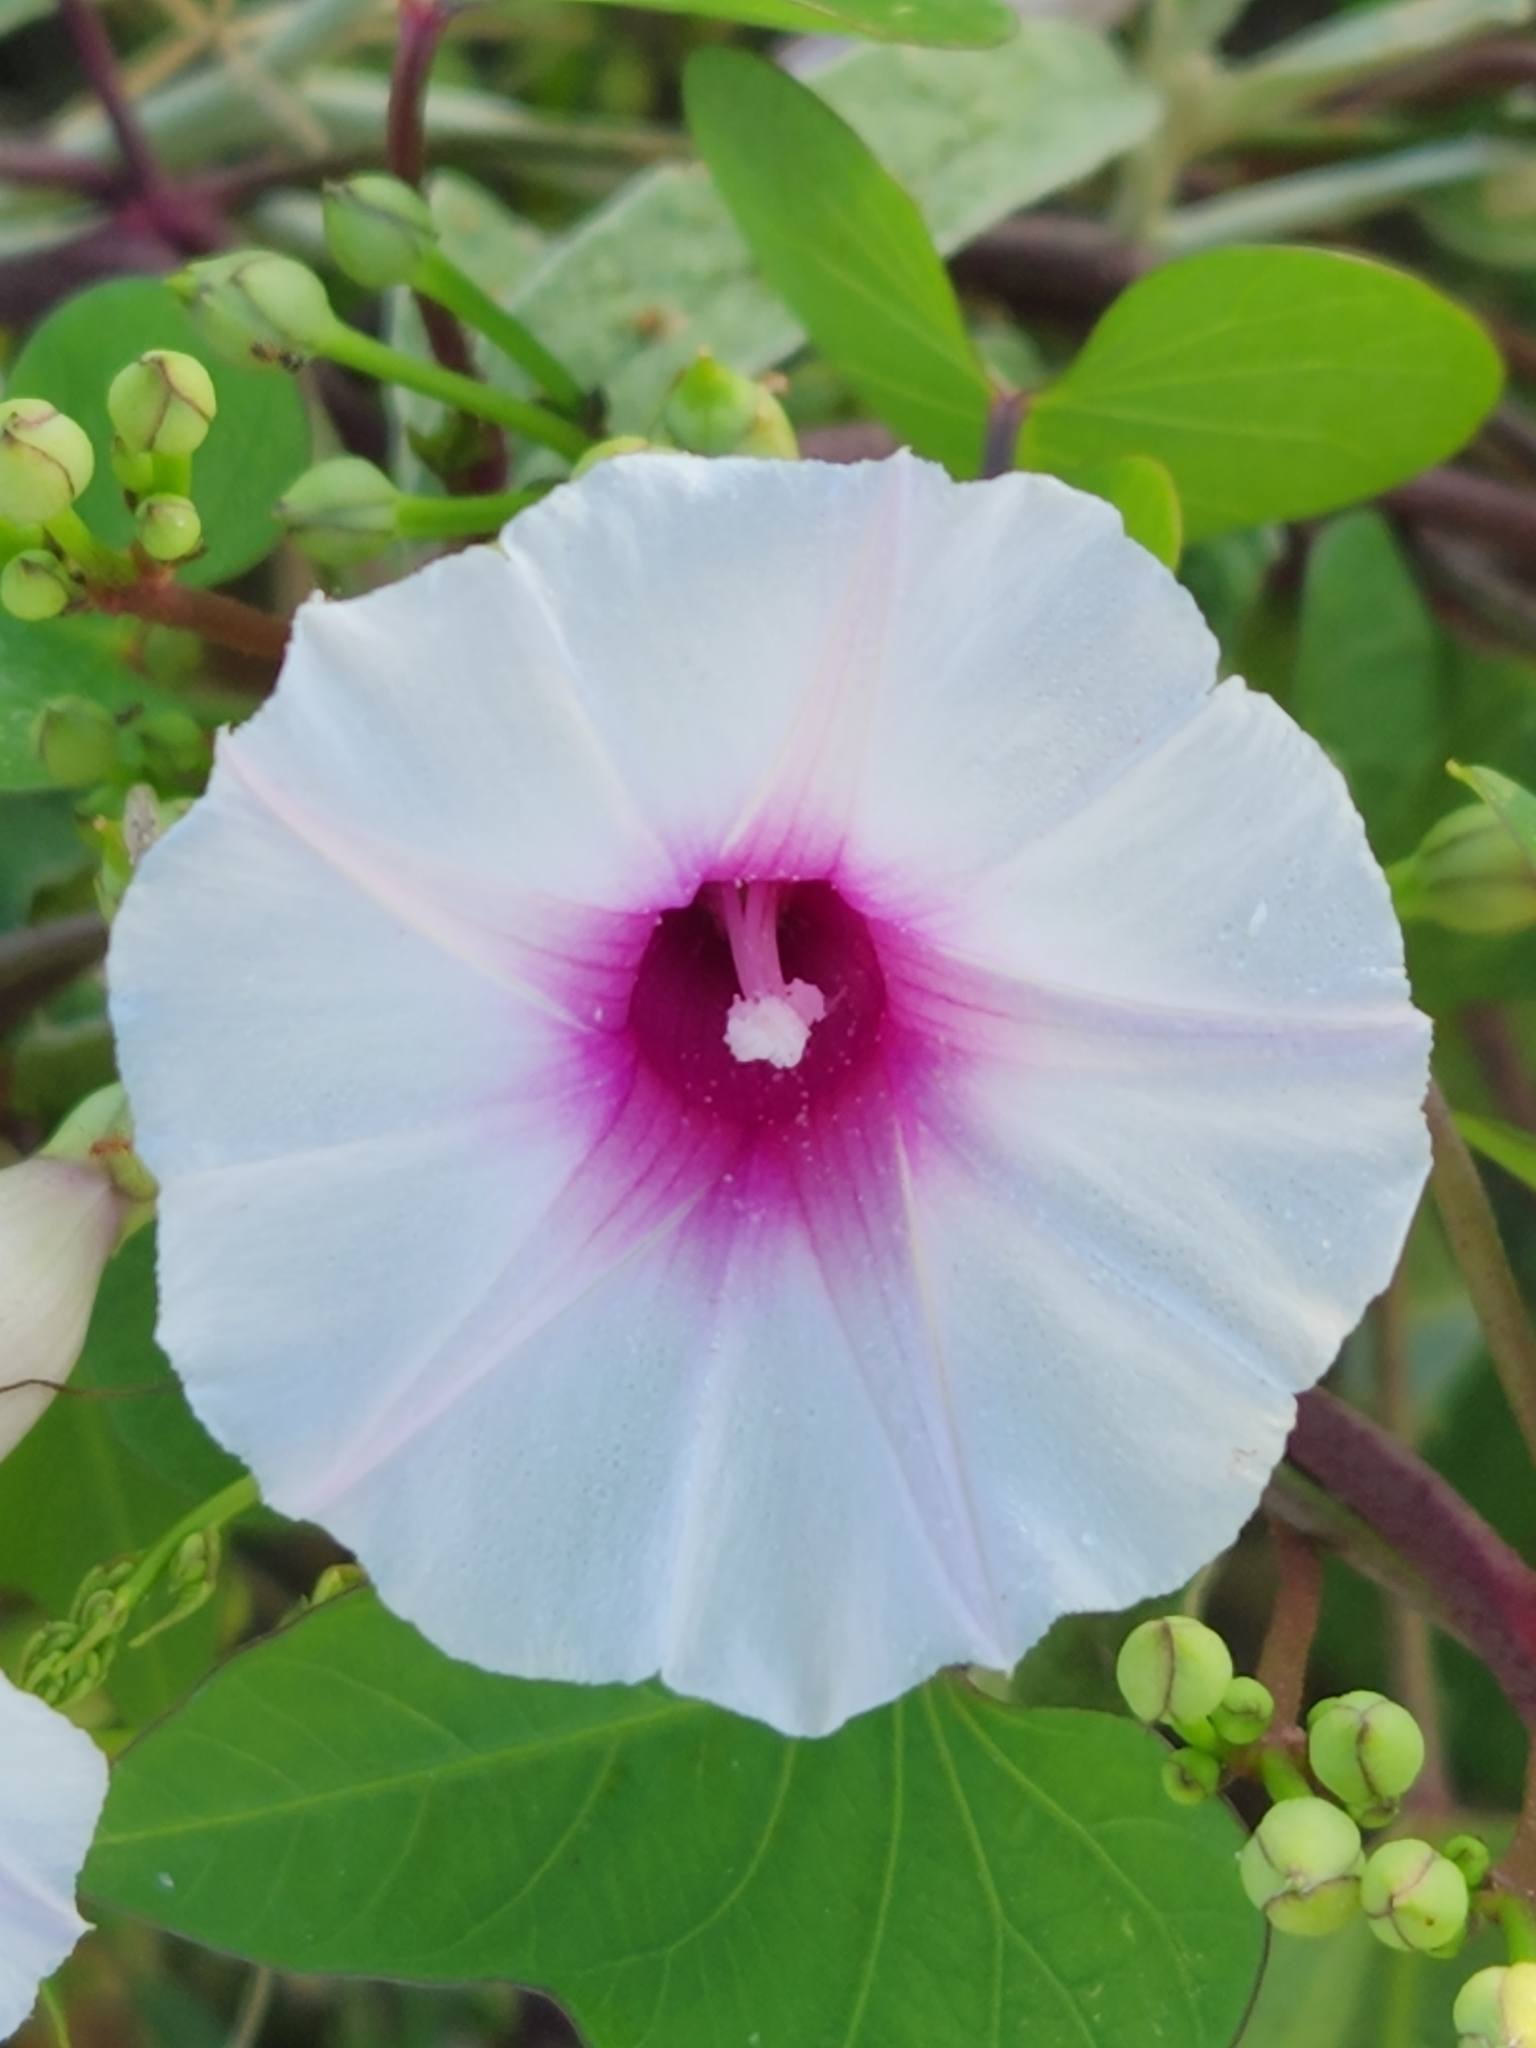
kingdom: Plantae
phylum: Tracheophyta
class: Magnoliopsida
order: Solanales
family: Convolvulaceae
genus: Ipomoea
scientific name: Ipomoea amnicola
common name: Redcenter morning-glory
